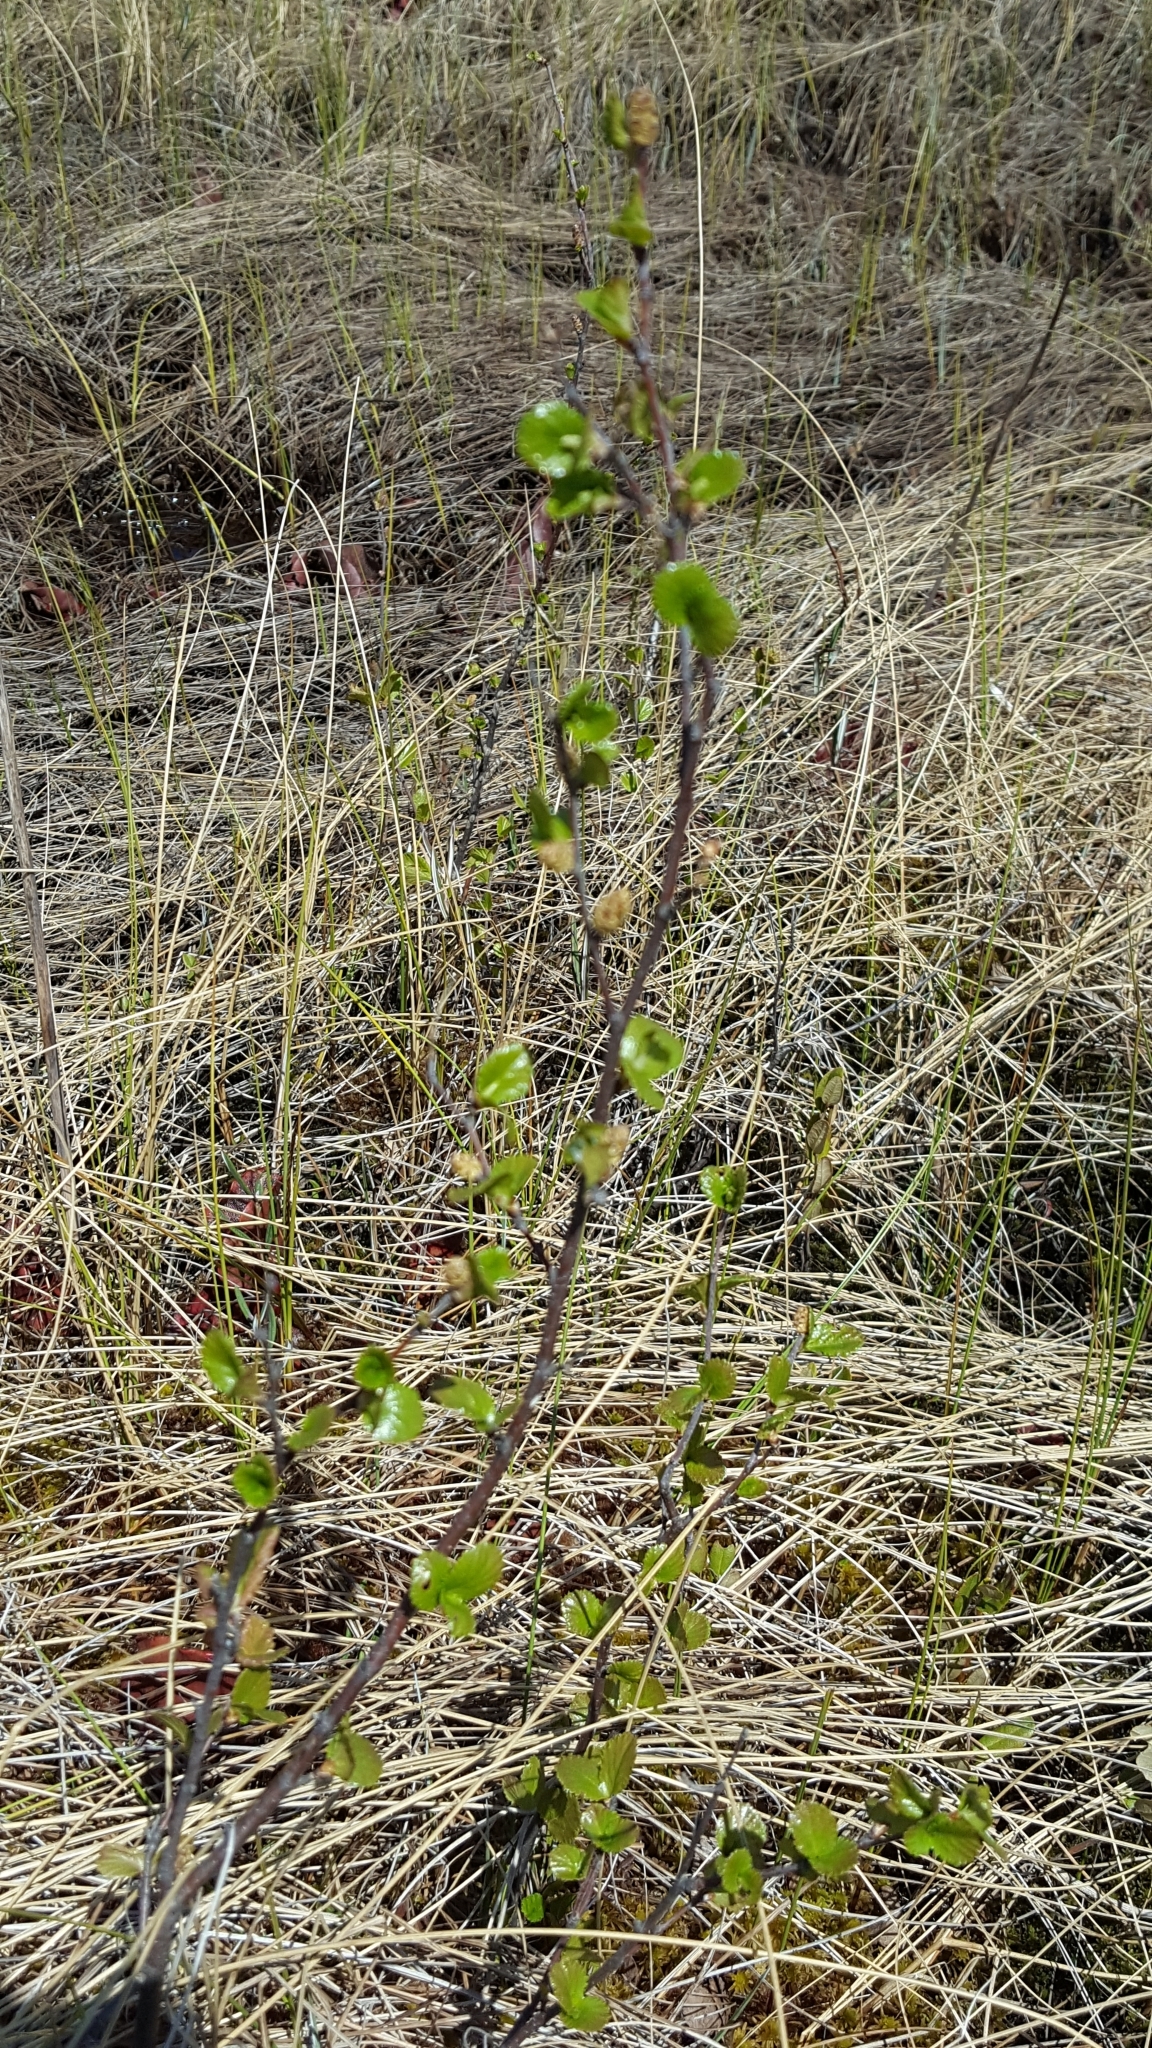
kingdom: Plantae
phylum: Tracheophyta
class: Magnoliopsida
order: Fagales
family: Betulaceae
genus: Betula
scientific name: Betula pumila
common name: Bog birch
